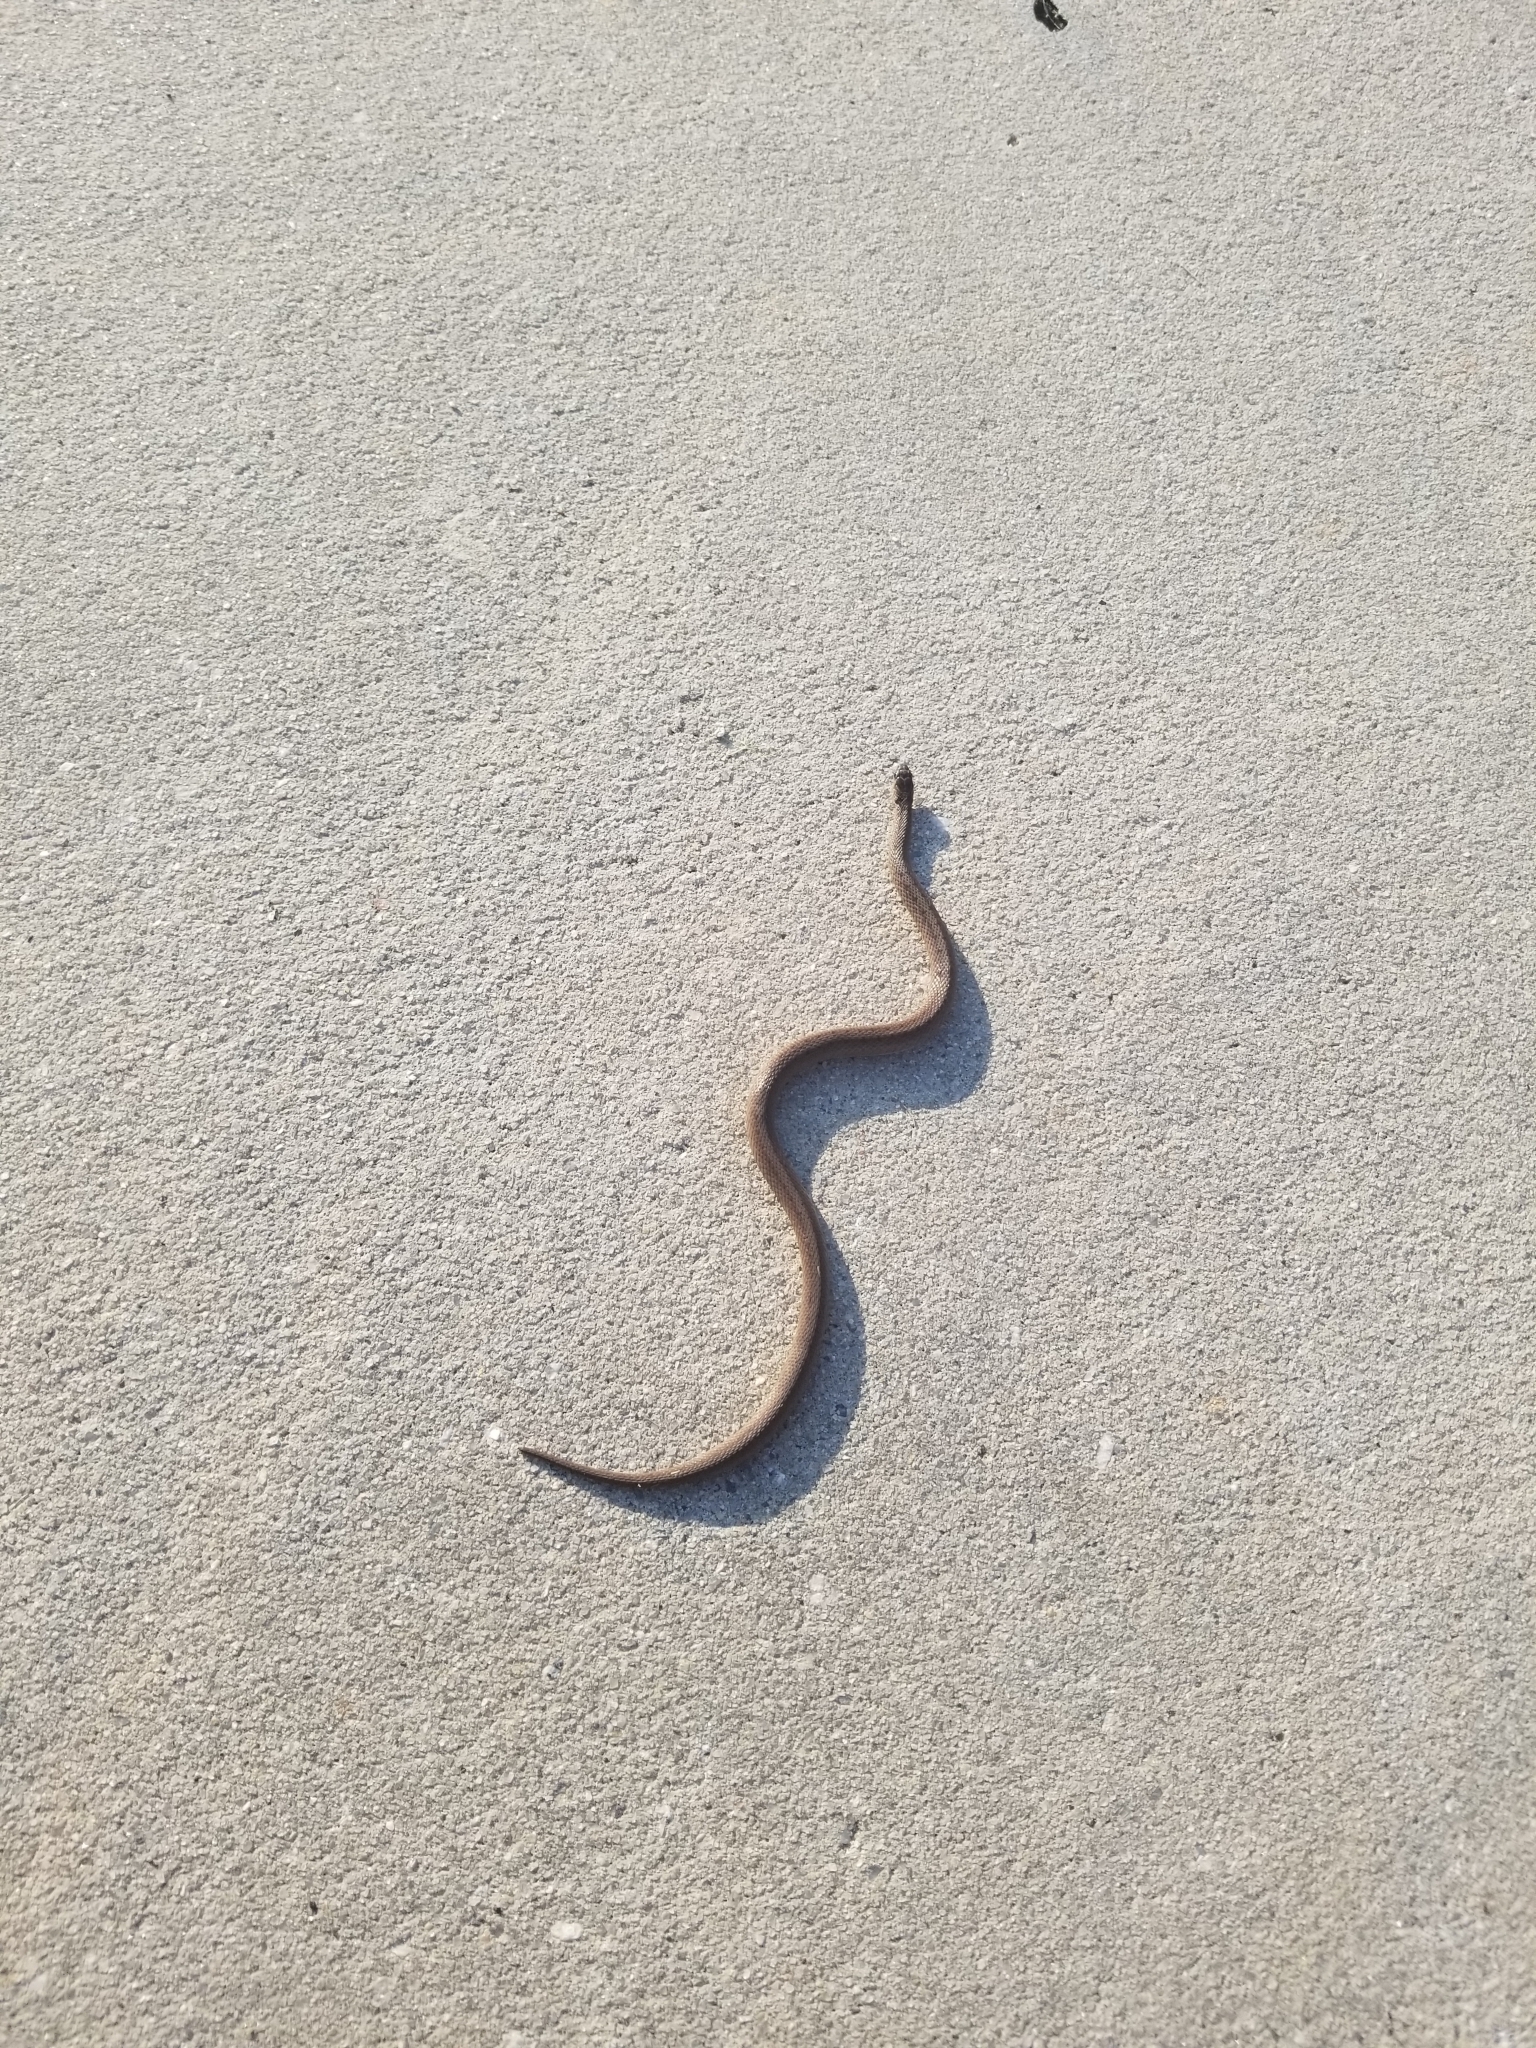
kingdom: Animalia
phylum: Chordata
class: Squamata
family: Colubridae
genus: Storeria
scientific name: Storeria dekayi
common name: (dekay’s) brown snake
